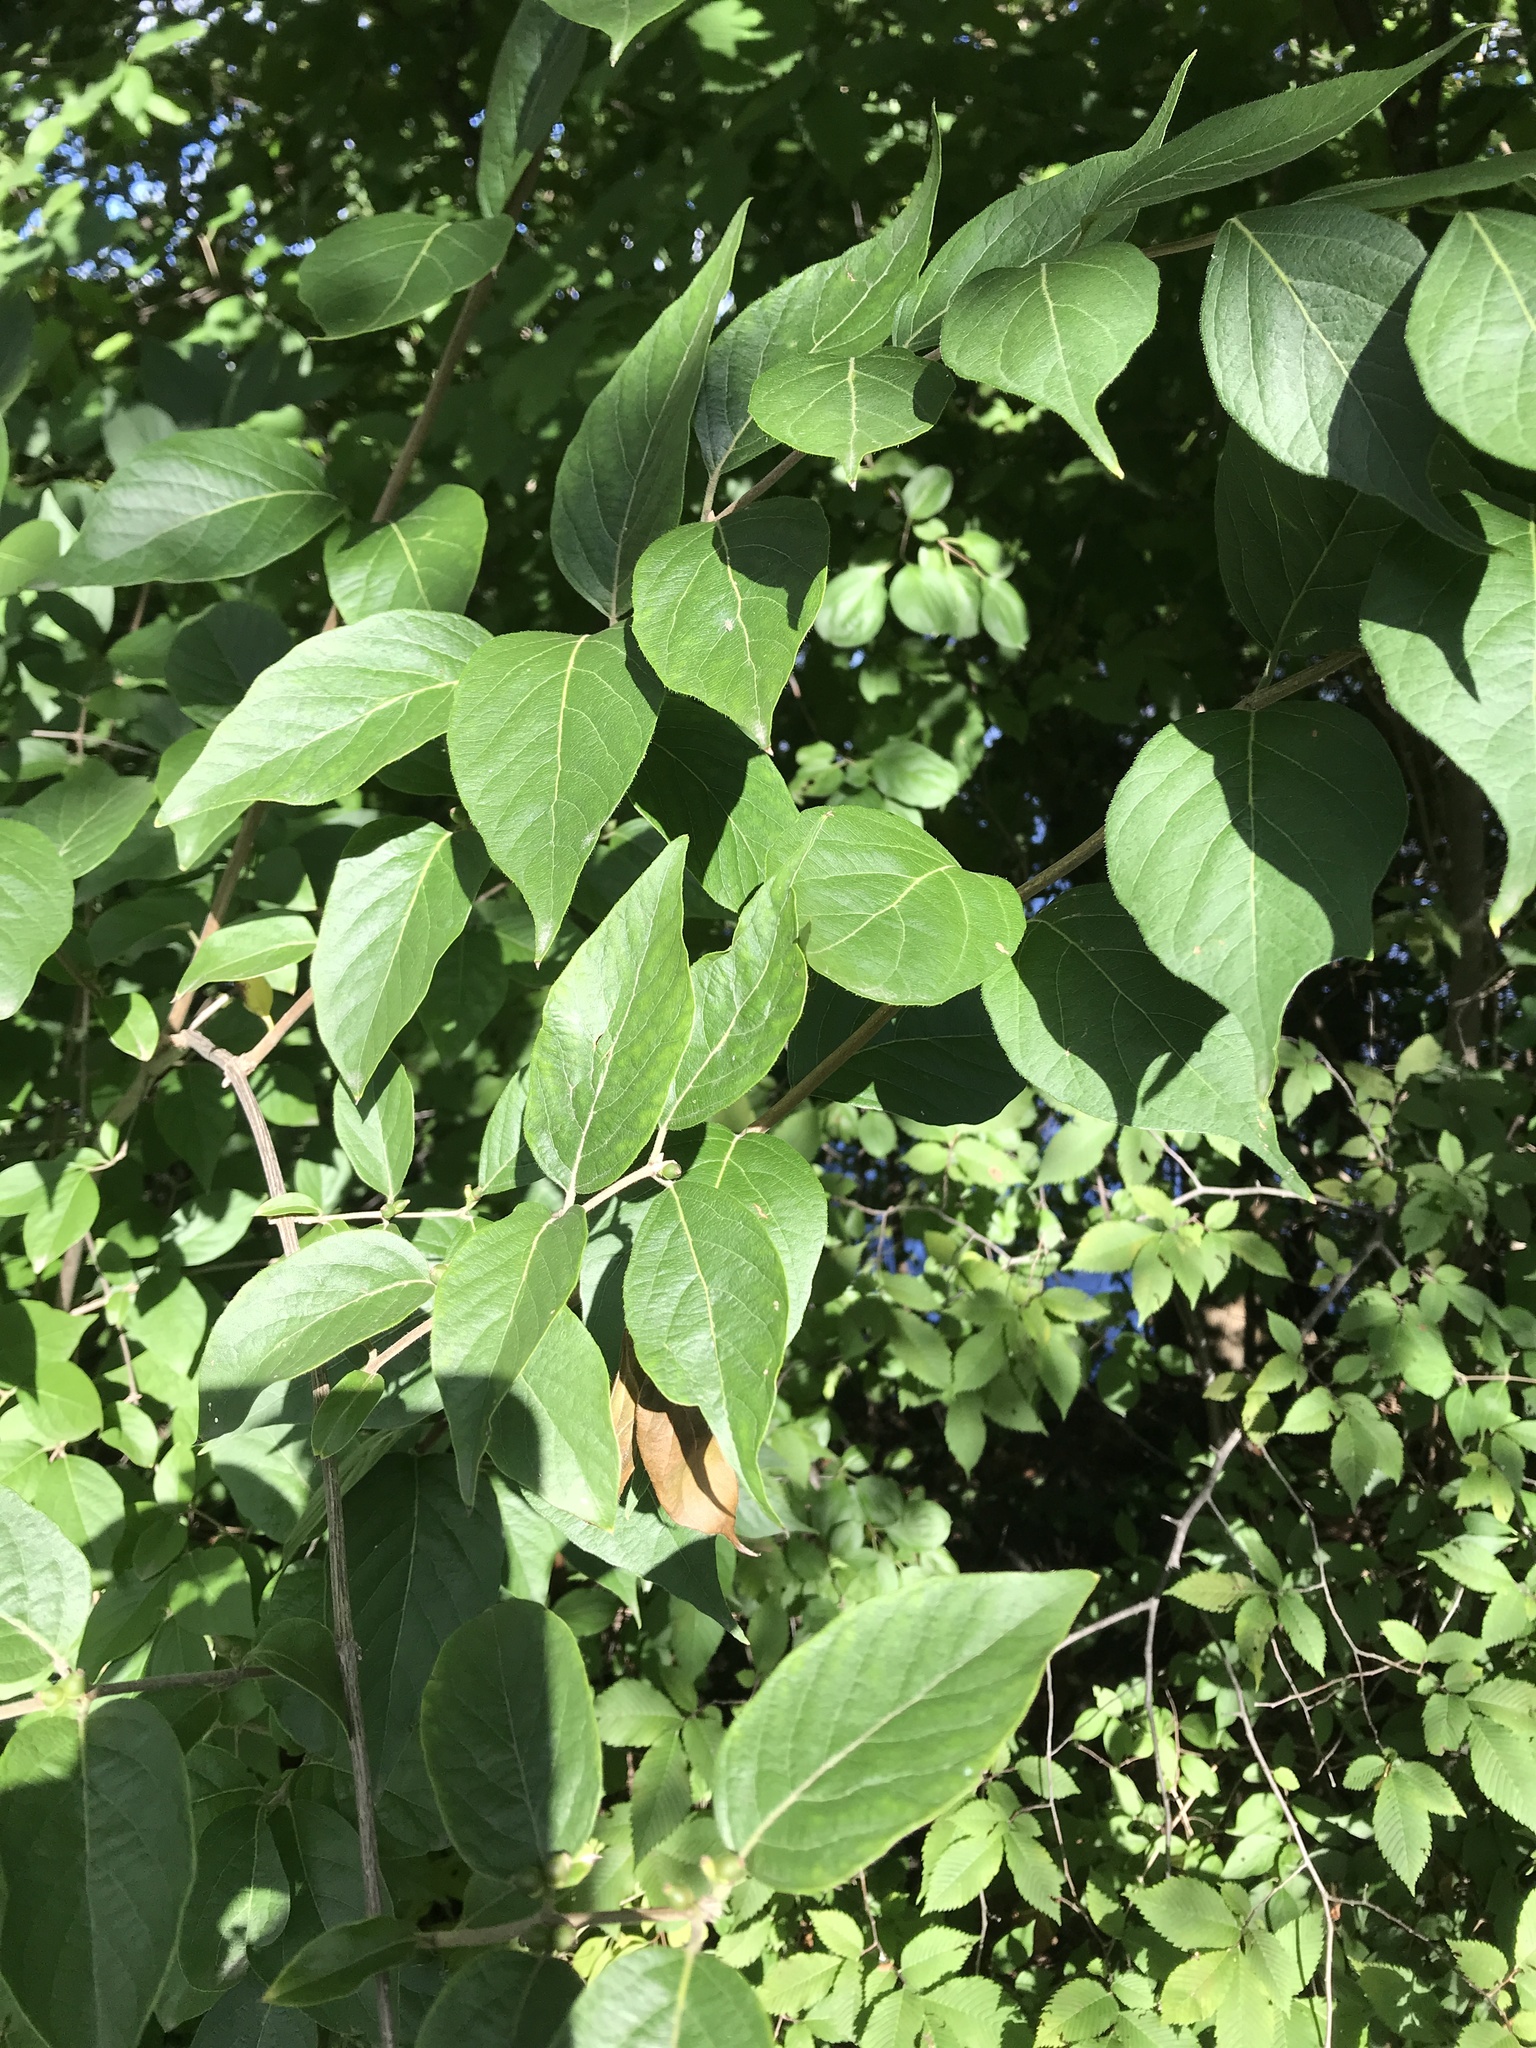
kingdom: Plantae
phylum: Tracheophyta
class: Magnoliopsida
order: Dipsacales
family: Caprifoliaceae
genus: Lonicera
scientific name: Lonicera maackii
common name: Amur honeysuckle
